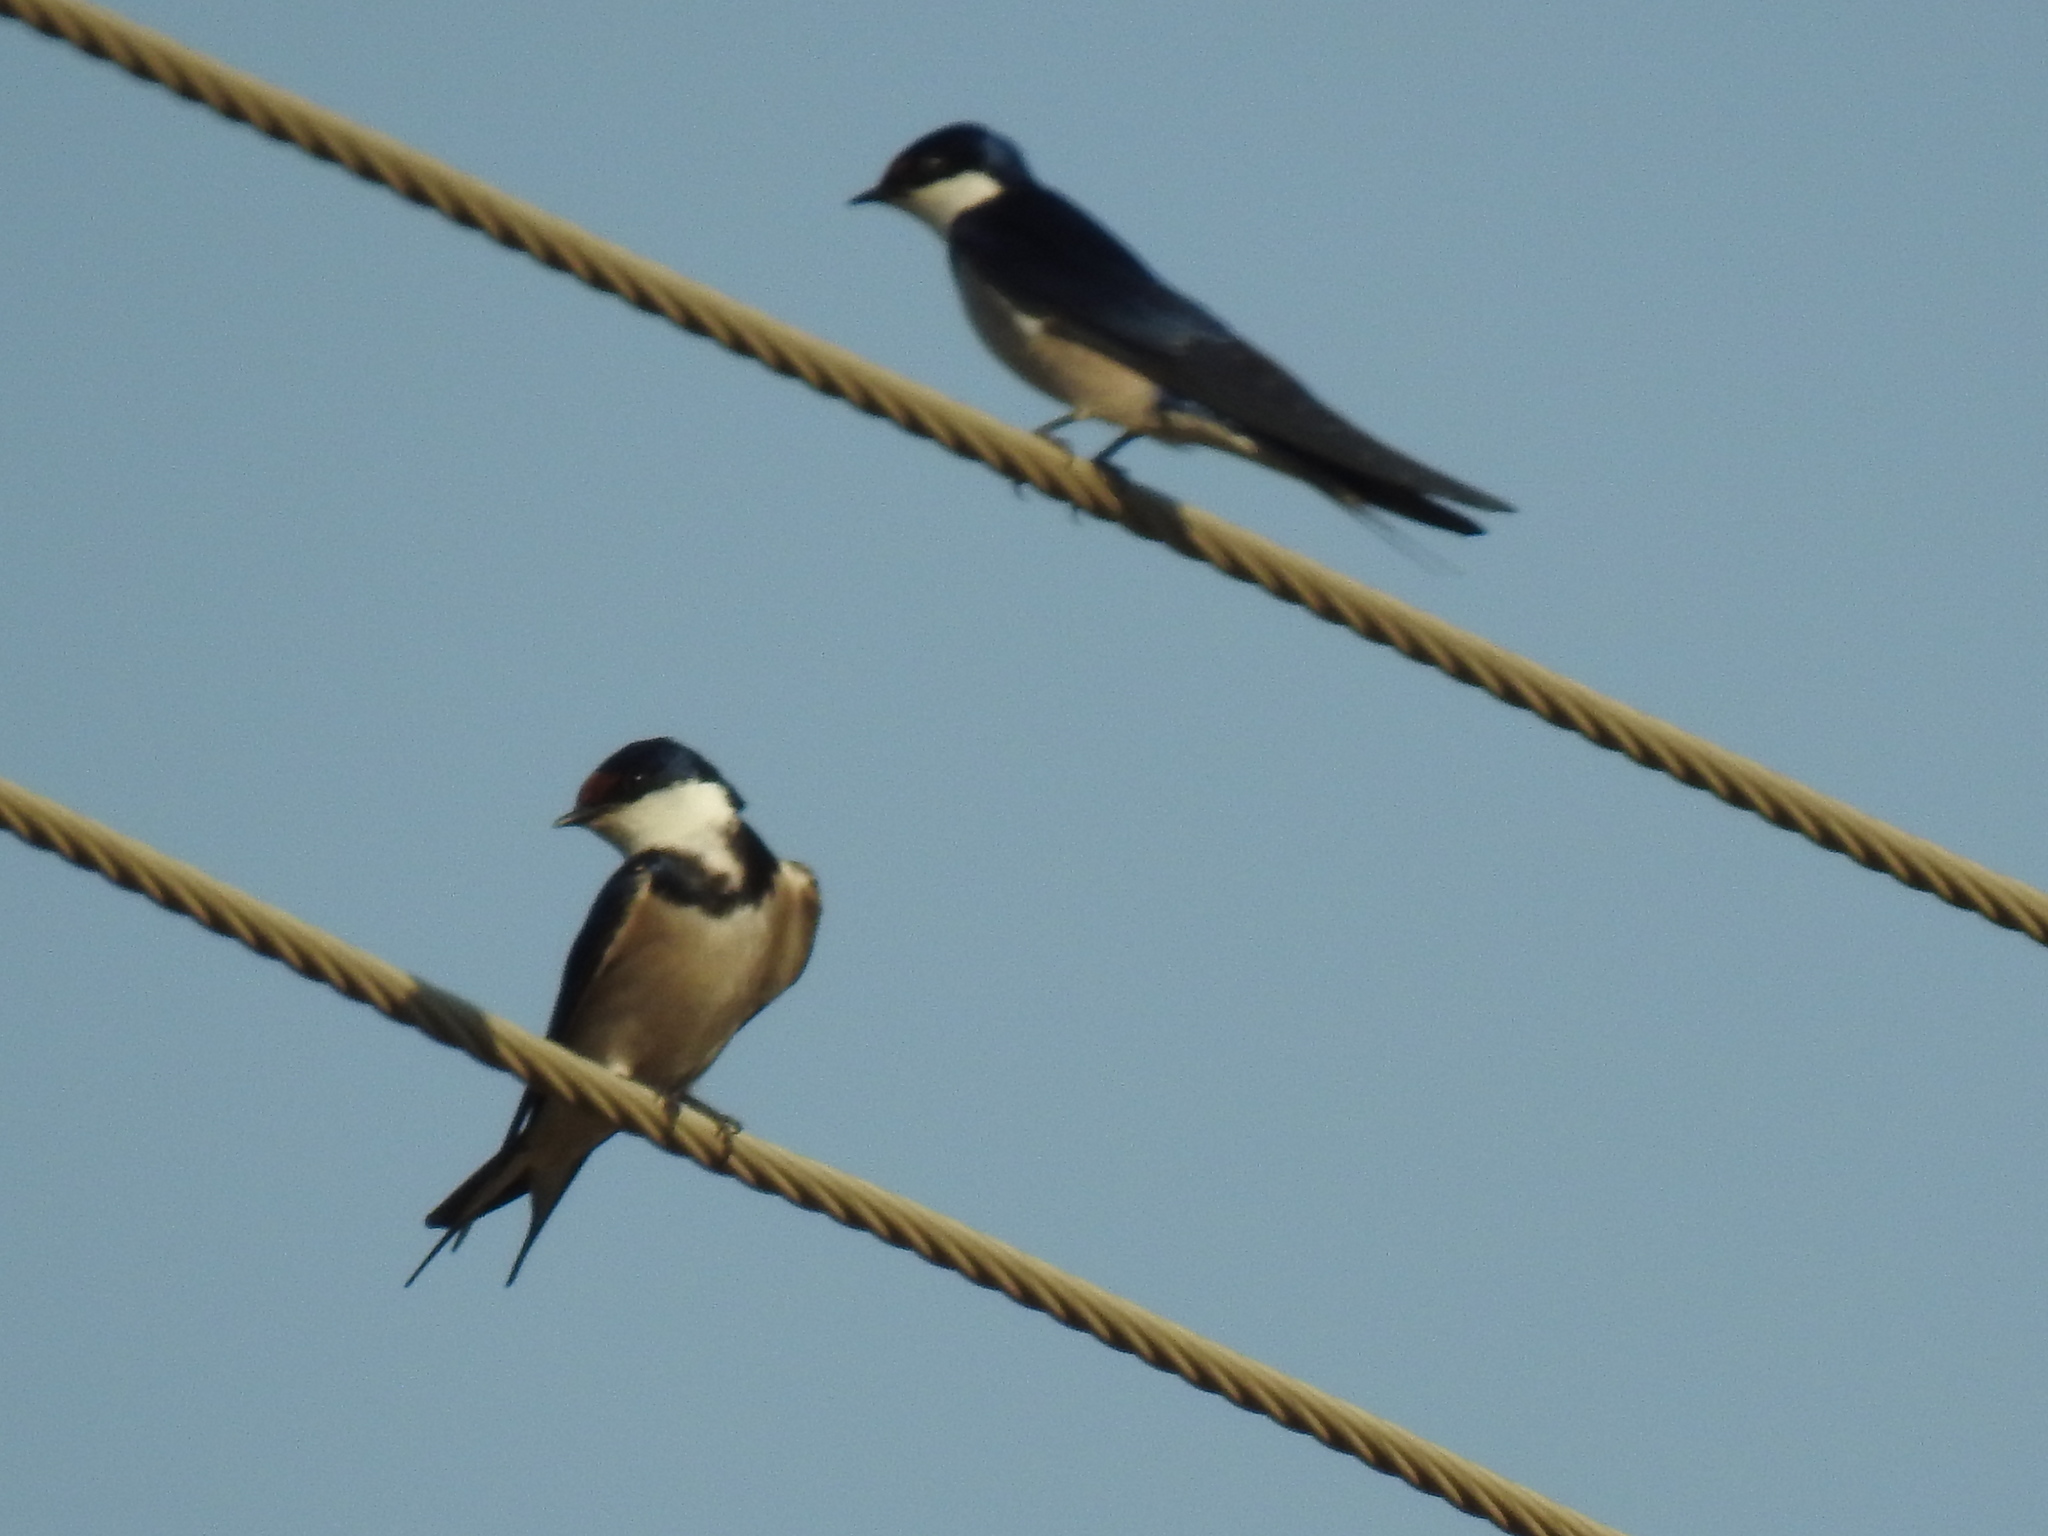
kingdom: Animalia
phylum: Chordata
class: Aves
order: Passeriformes
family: Hirundinidae
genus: Hirundo
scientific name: Hirundo albigularis
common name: White-throated swallow
